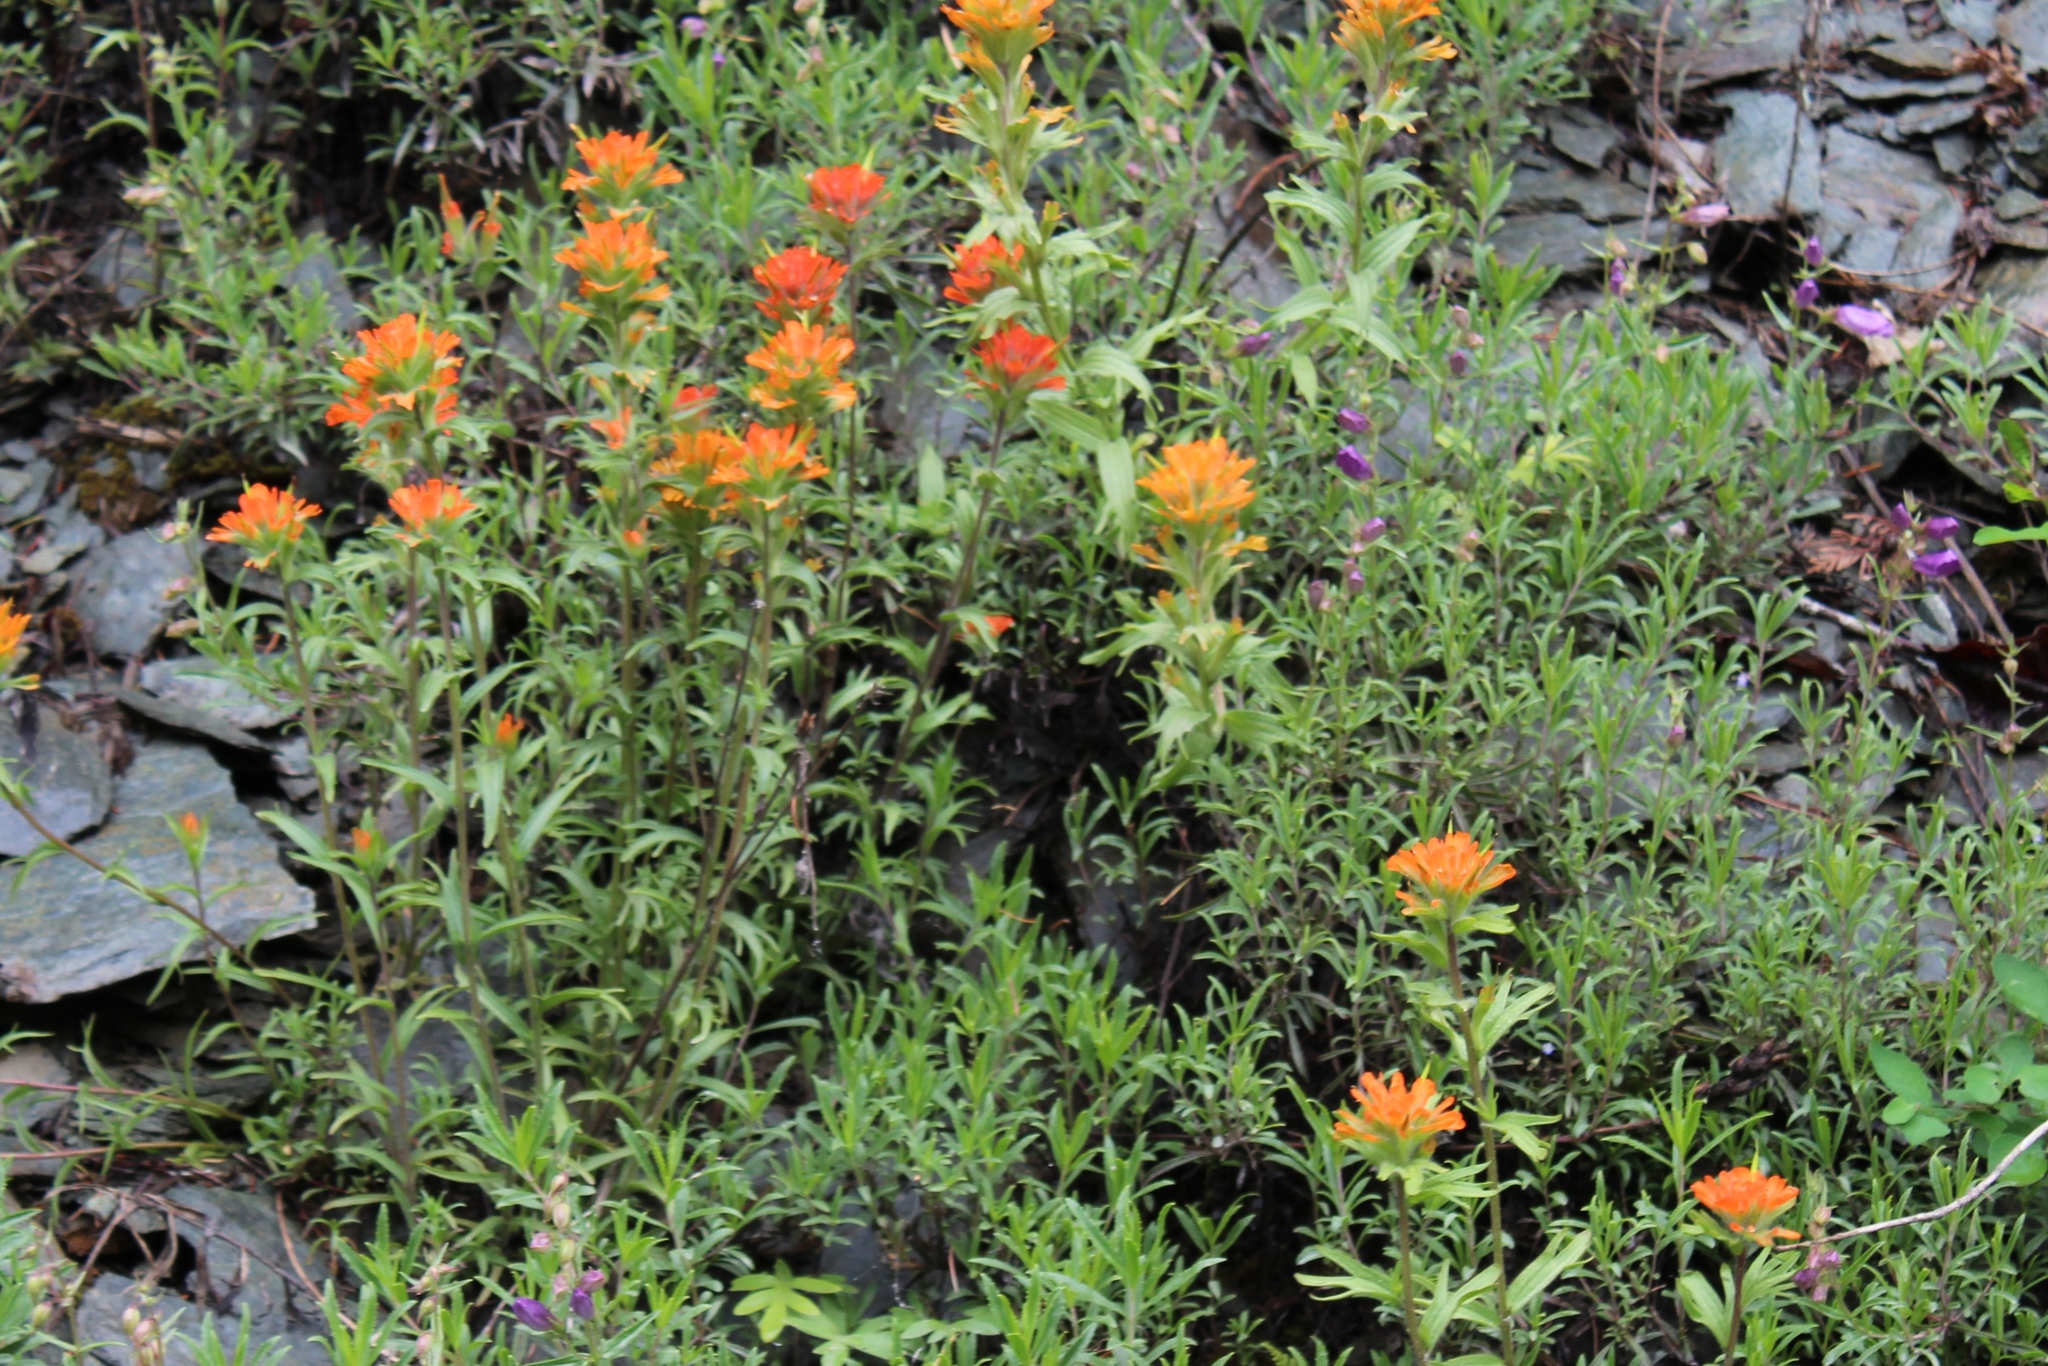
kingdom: Plantae
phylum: Tracheophyta
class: Magnoliopsida
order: Lamiales
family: Orobanchaceae
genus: Castilleja
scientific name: Castilleja hispida
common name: Bristly paintbrush
